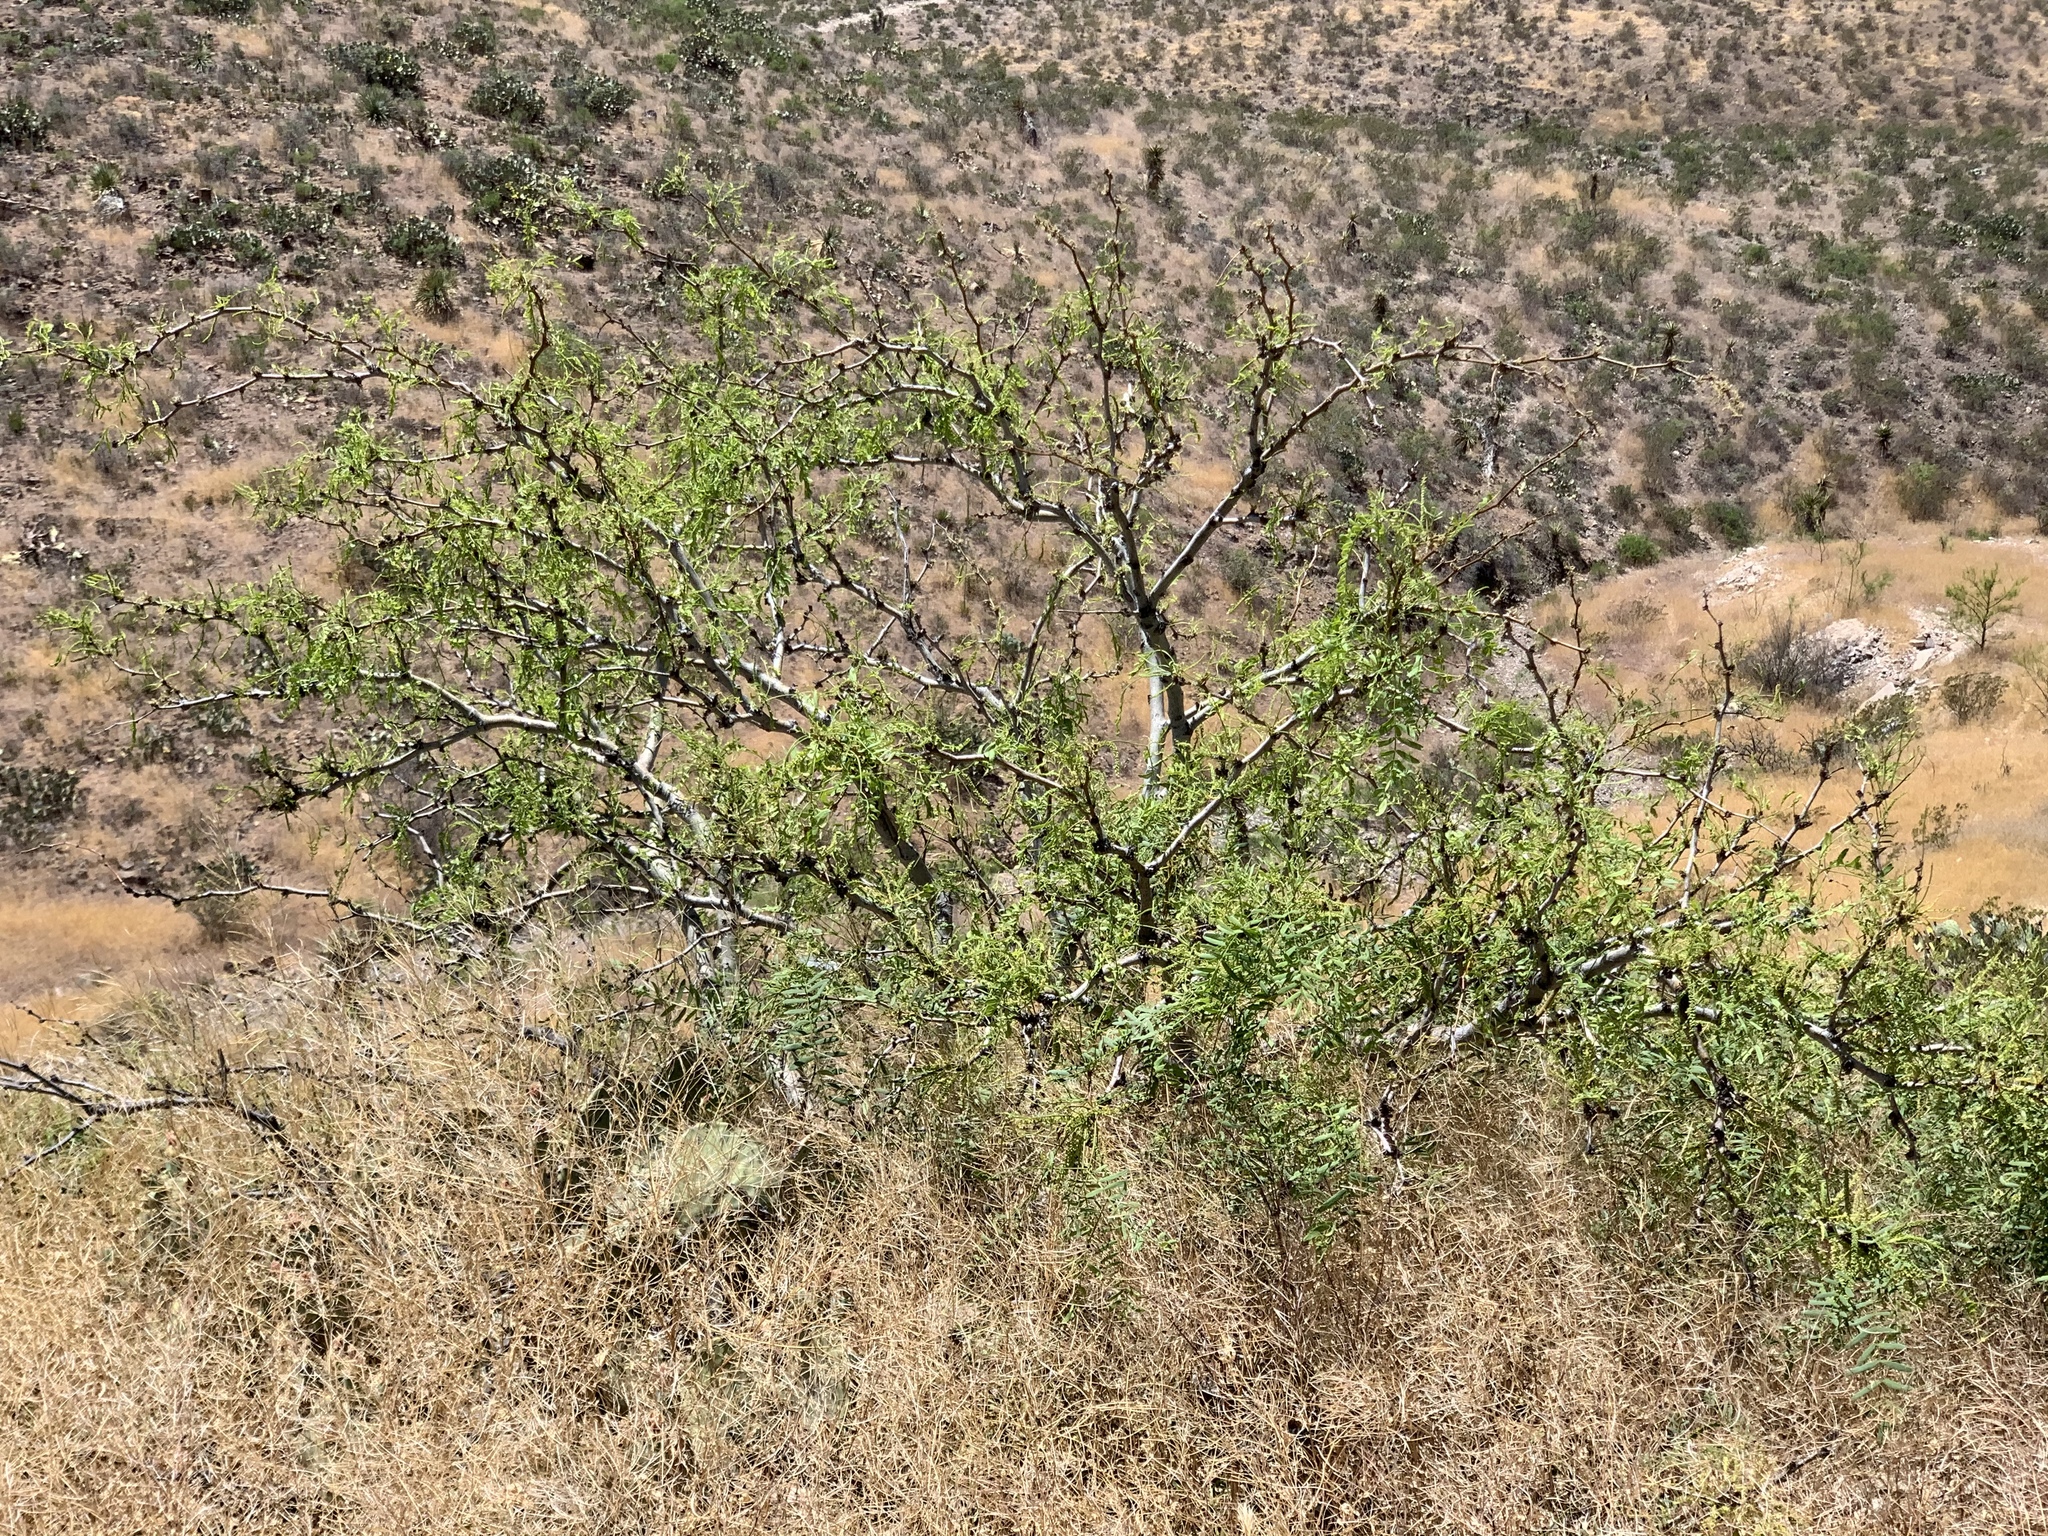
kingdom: Plantae
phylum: Tracheophyta
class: Magnoliopsida
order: Fabales
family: Fabaceae
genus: Prosopis
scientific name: Prosopis glandulosa
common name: Honey mesquite
